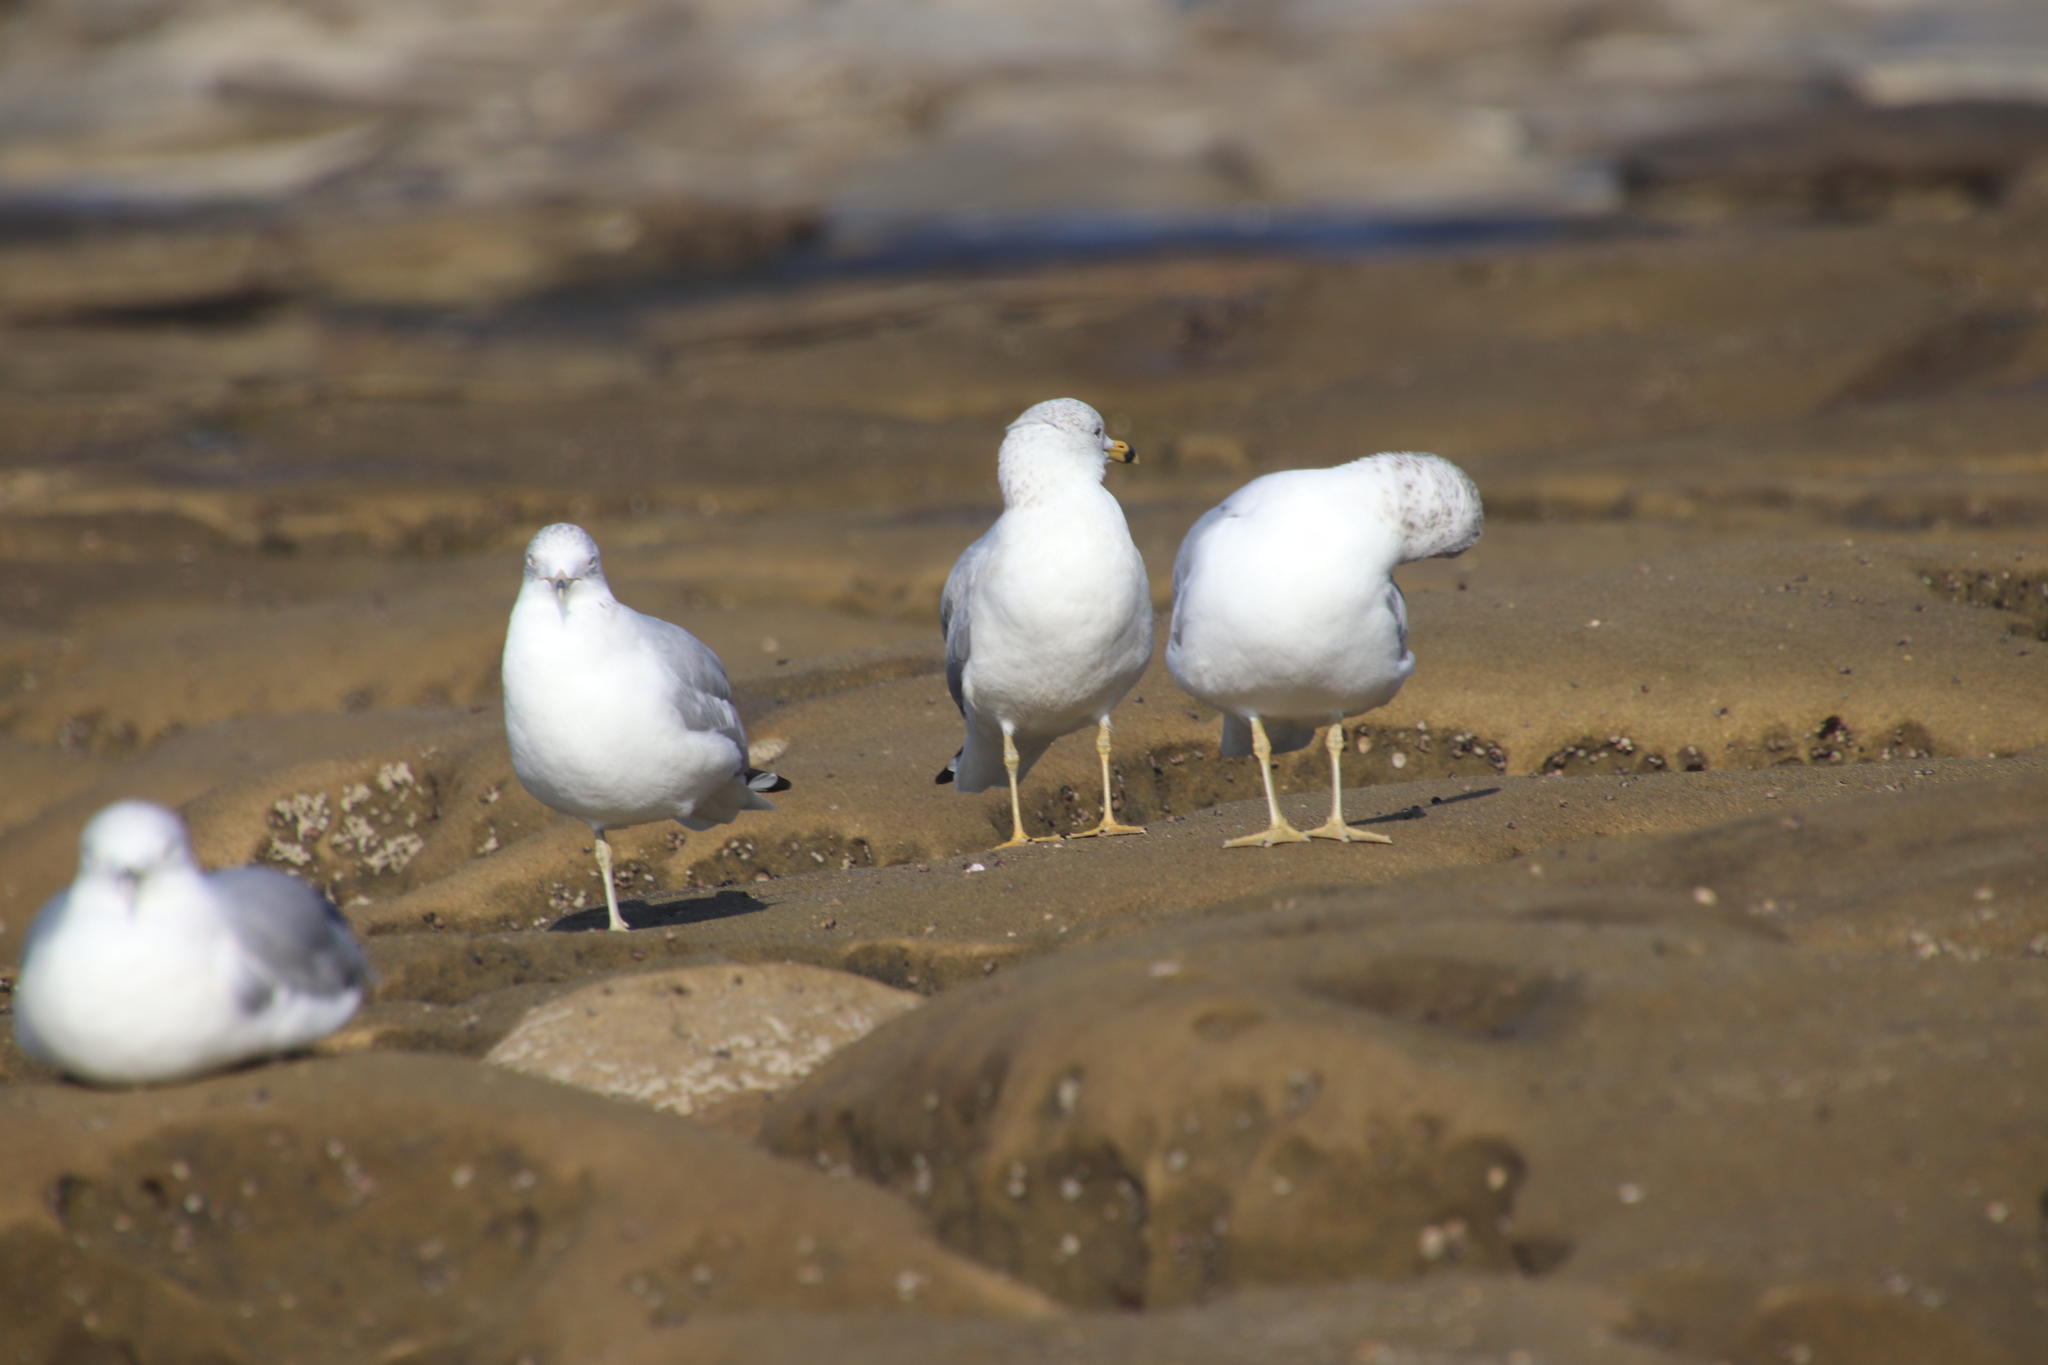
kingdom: Animalia
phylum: Chordata
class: Aves
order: Charadriiformes
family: Laridae
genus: Larus
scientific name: Larus delawarensis
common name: Ring-billed gull
